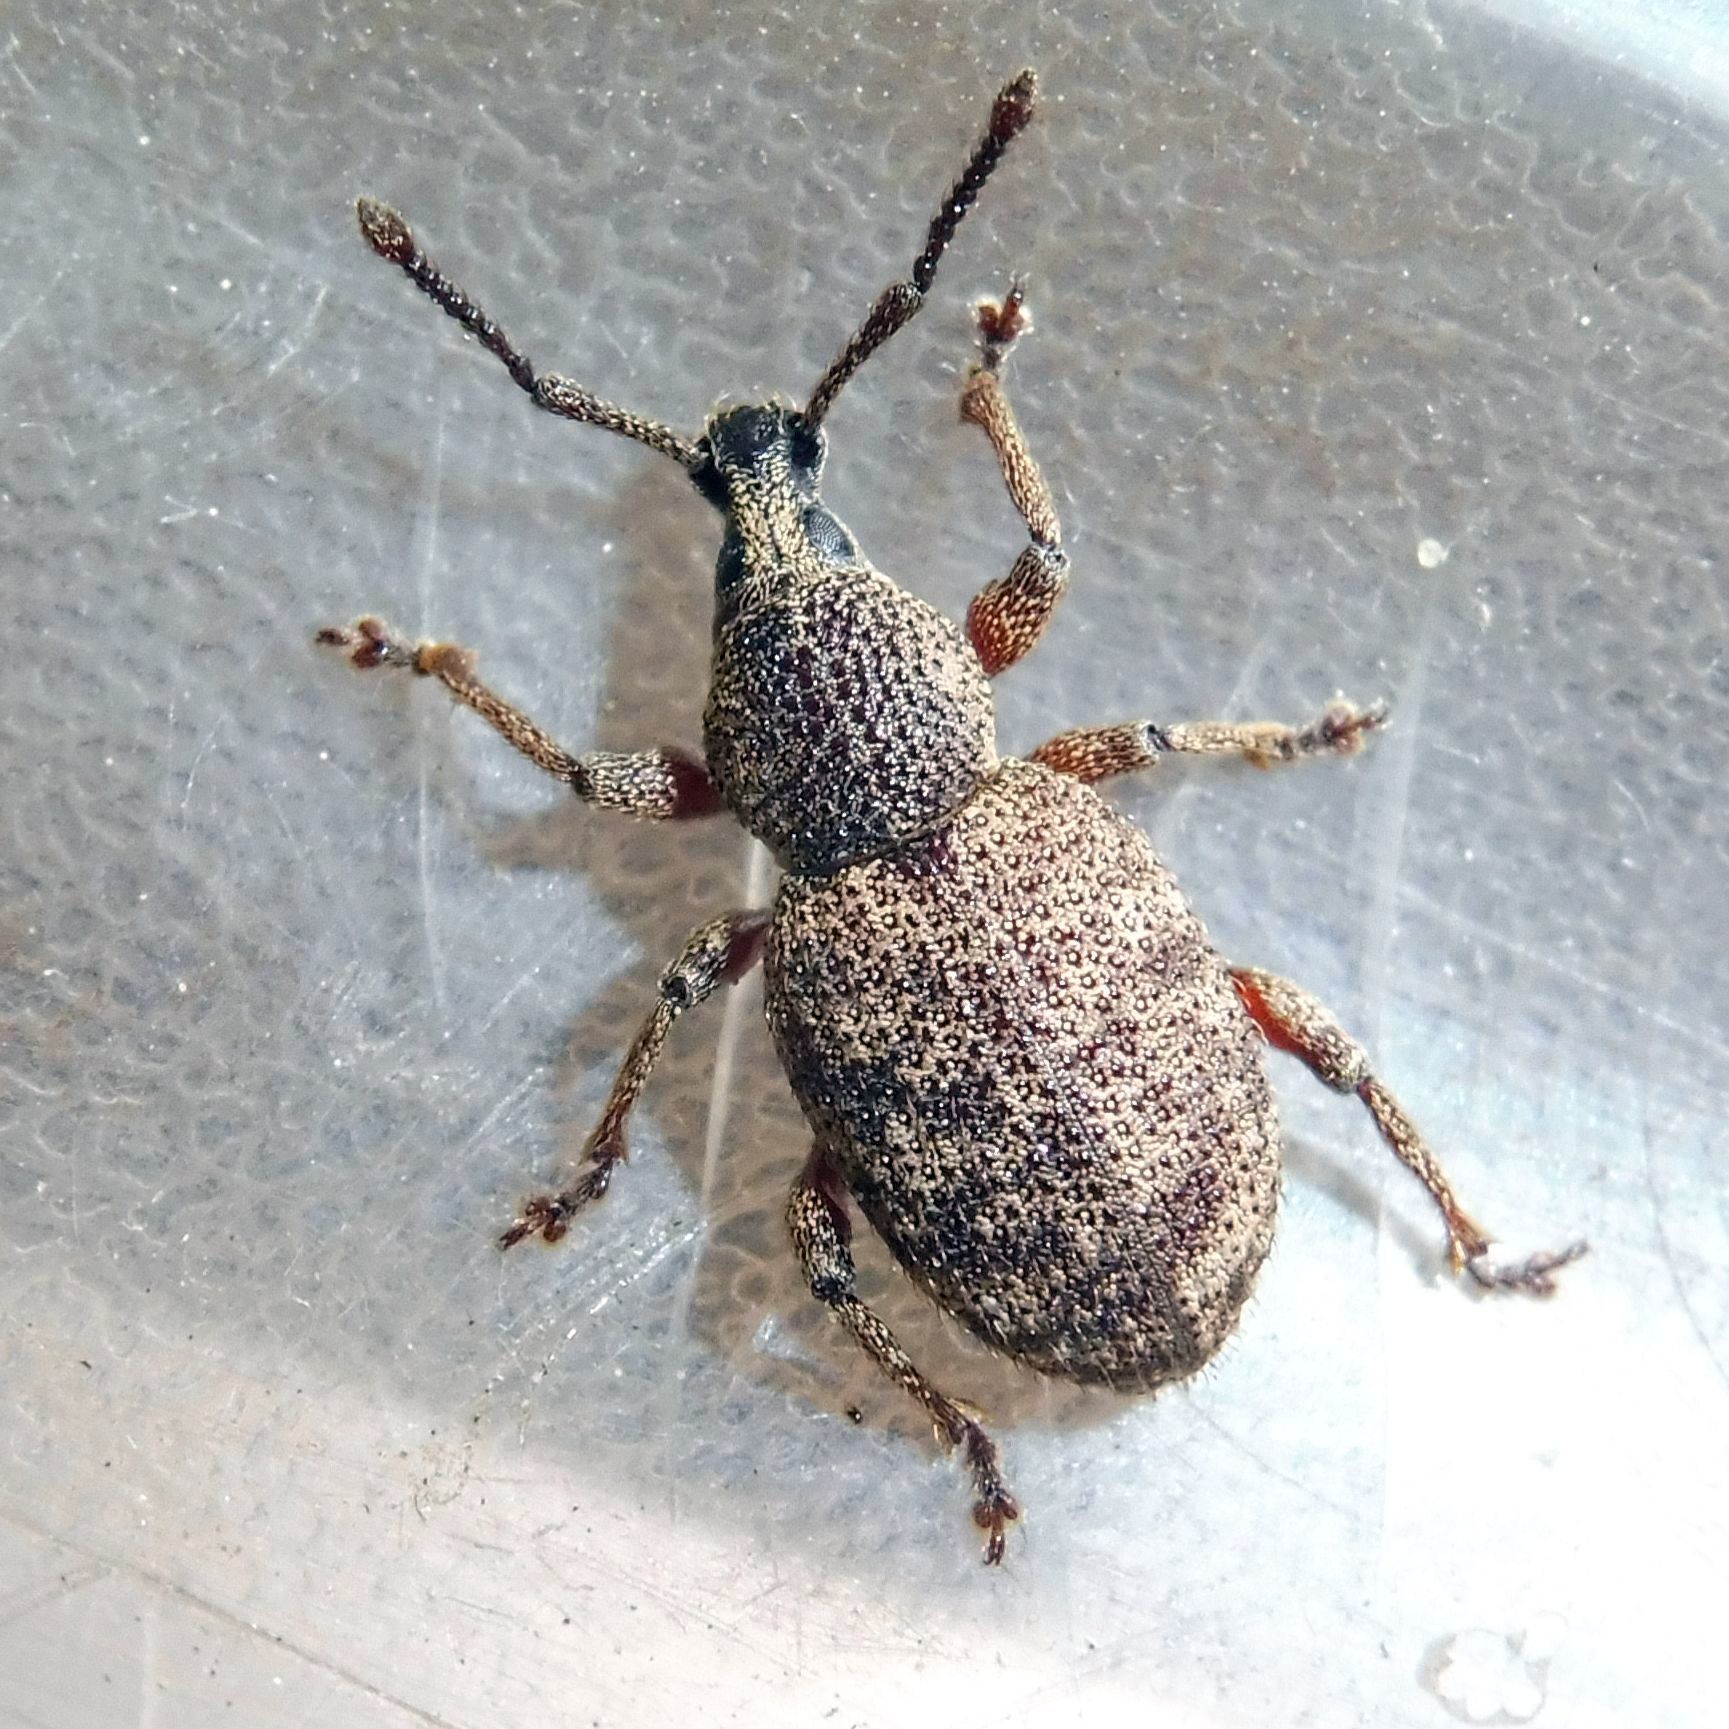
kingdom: Animalia
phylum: Arthropoda
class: Insecta
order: Coleoptera
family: Curculionidae
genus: Otiorhynchus
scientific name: Otiorhynchus singularis
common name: Clay-coloured weevil
